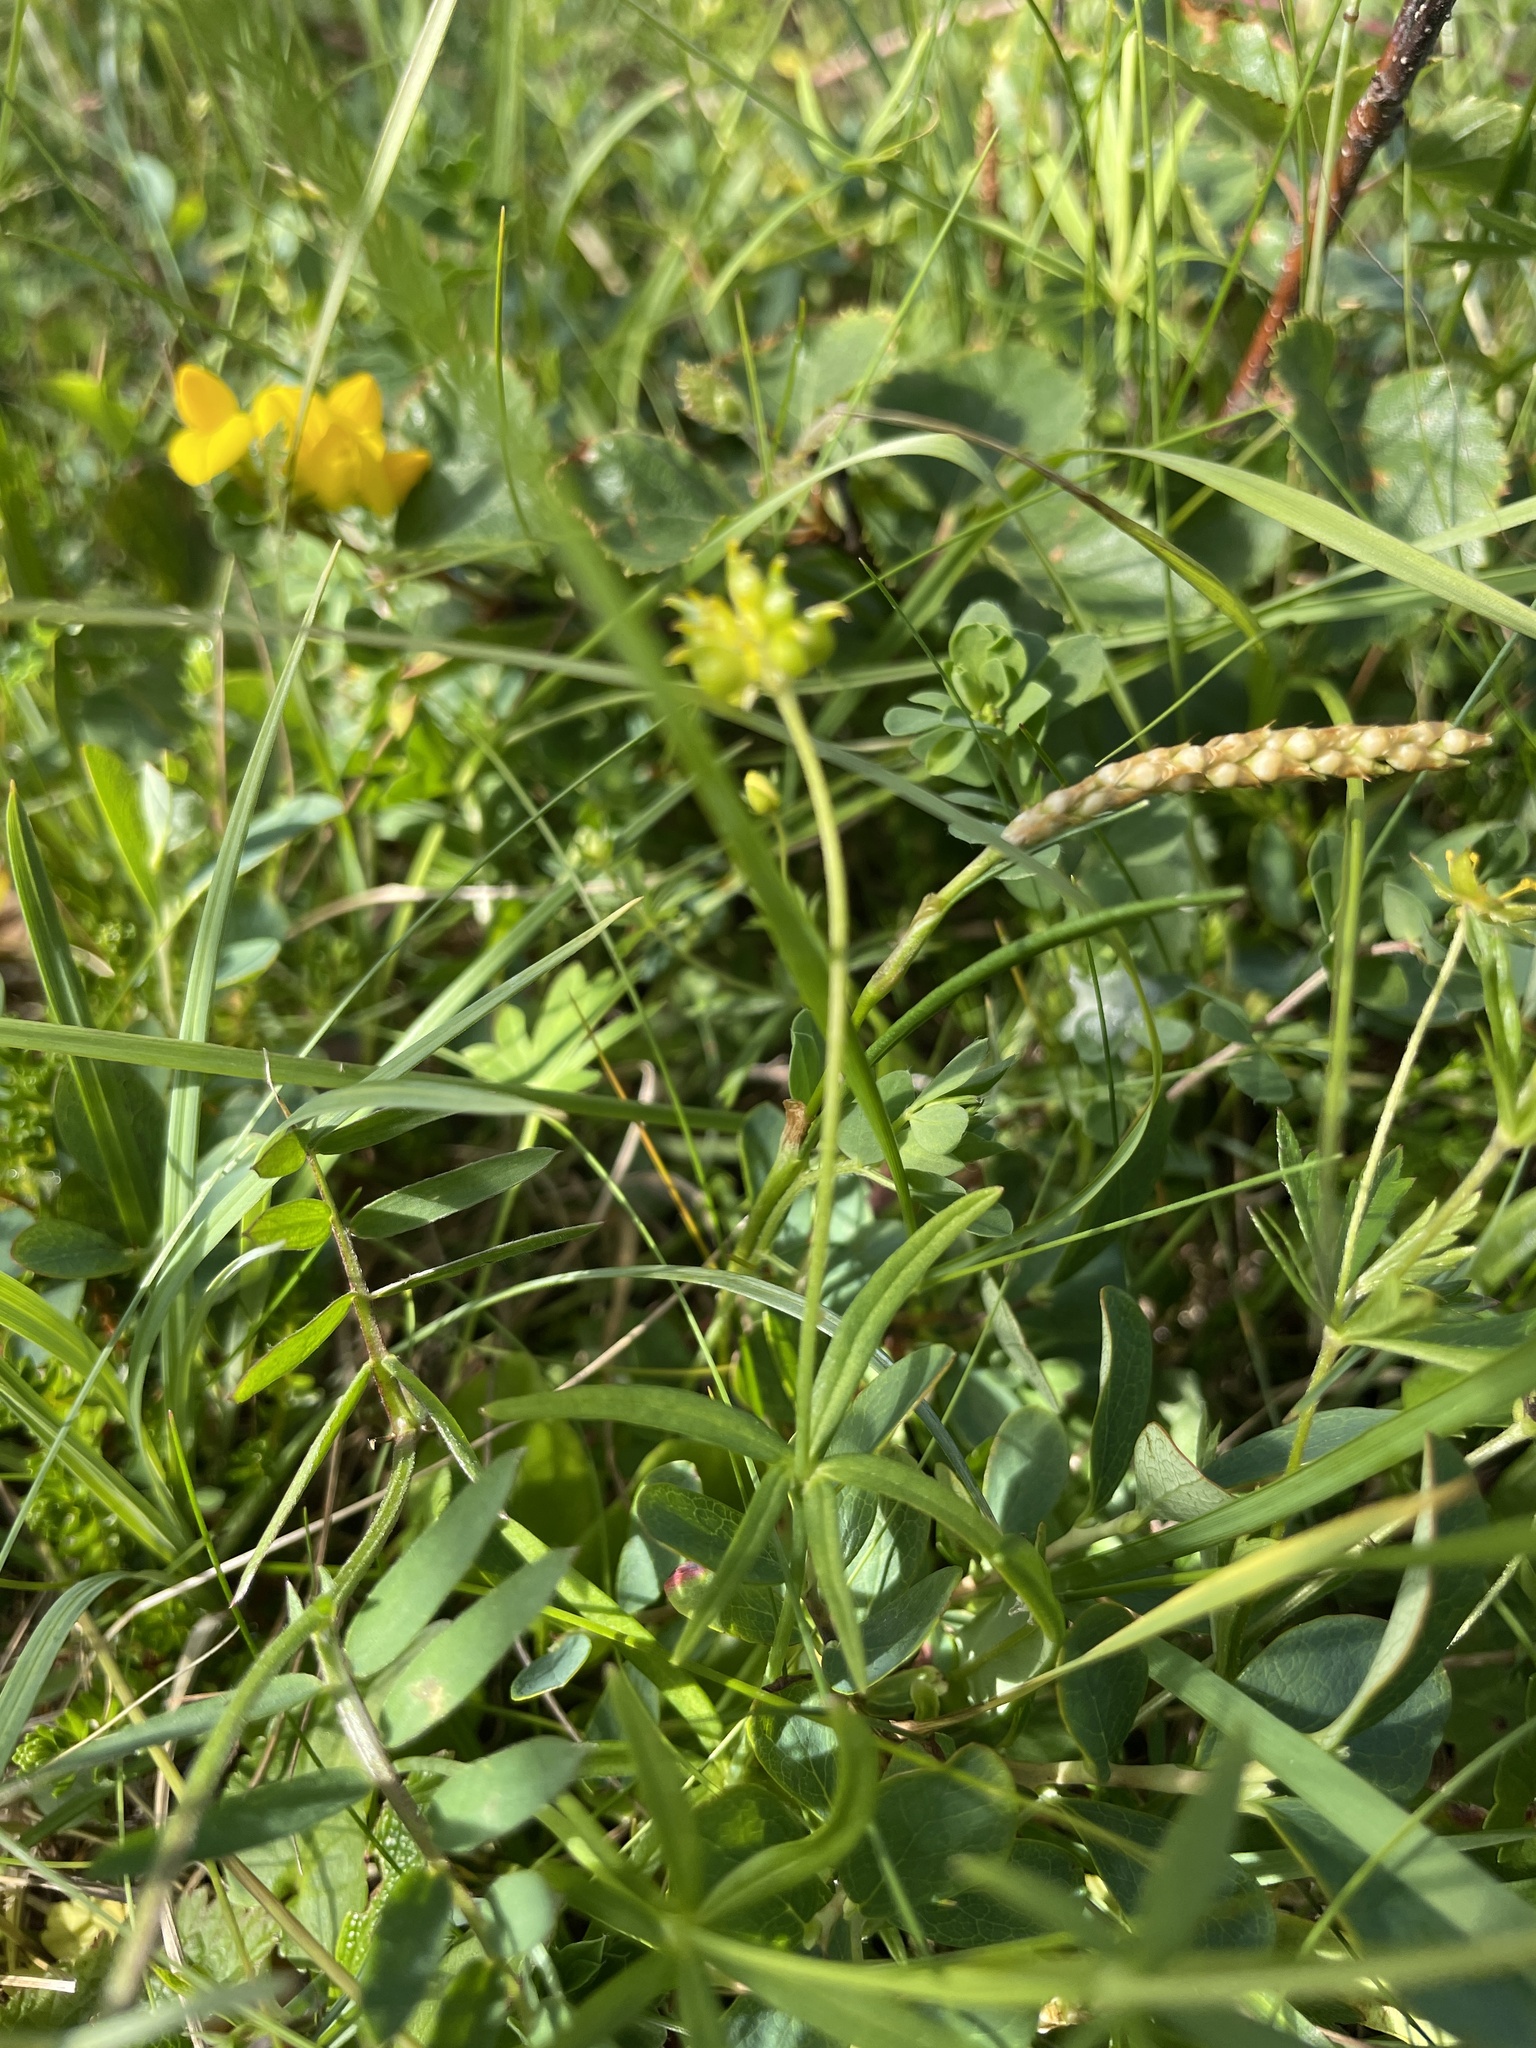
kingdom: Plantae
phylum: Tracheophyta
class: Magnoliopsida
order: Ranunculales
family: Ranunculaceae
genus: Ranunculus
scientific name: Ranunculus acris
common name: Meadow buttercup
